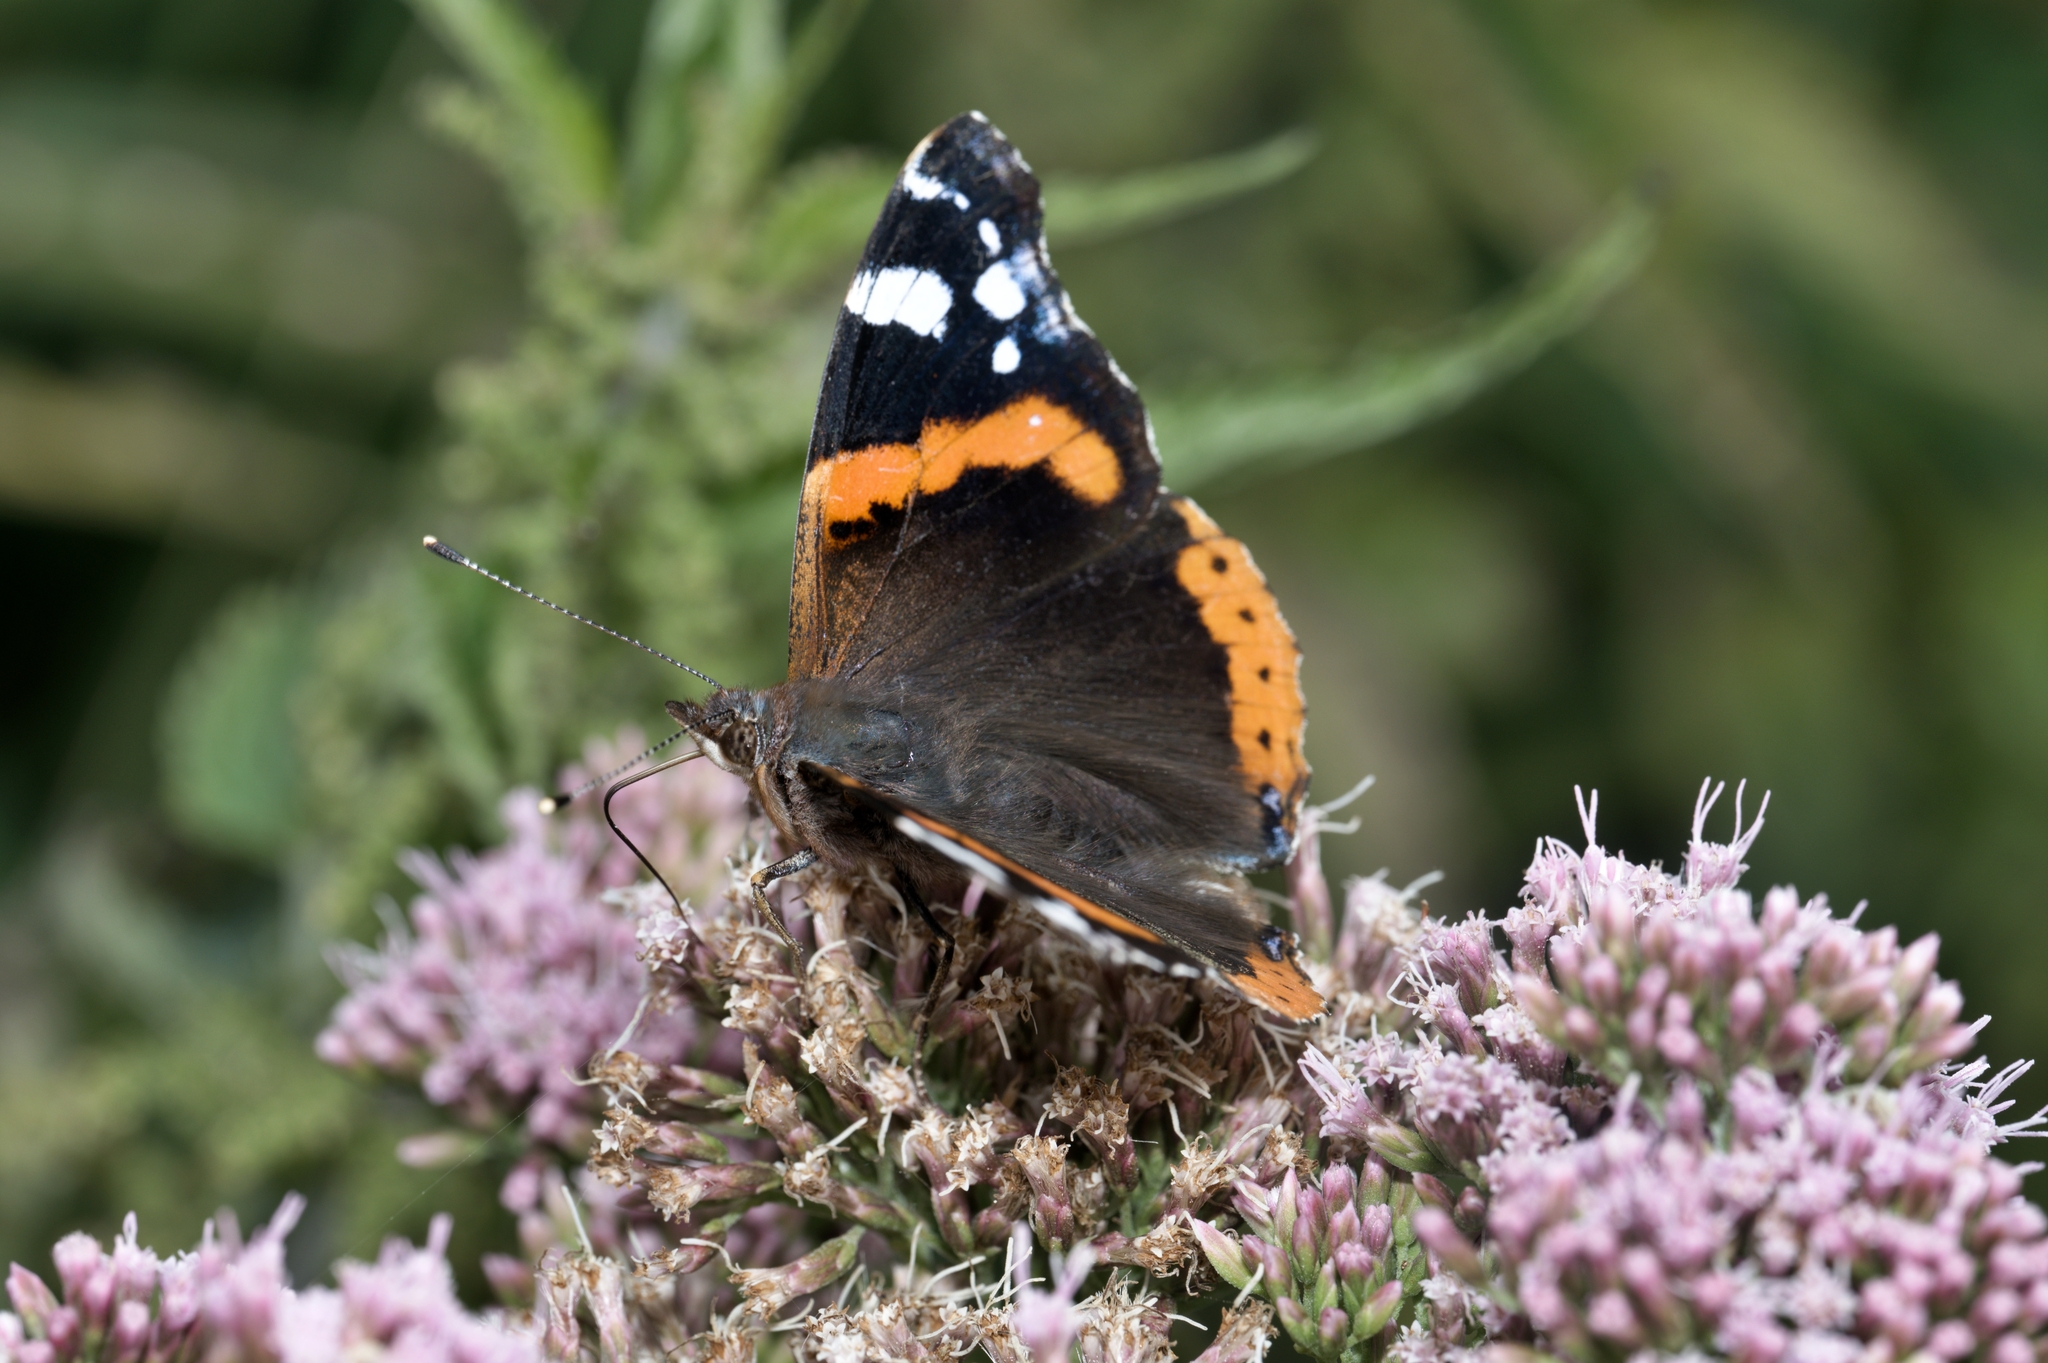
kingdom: Animalia
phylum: Arthropoda
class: Insecta
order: Lepidoptera
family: Nymphalidae
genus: Vanessa
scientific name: Vanessa atalanta
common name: Red admiral
